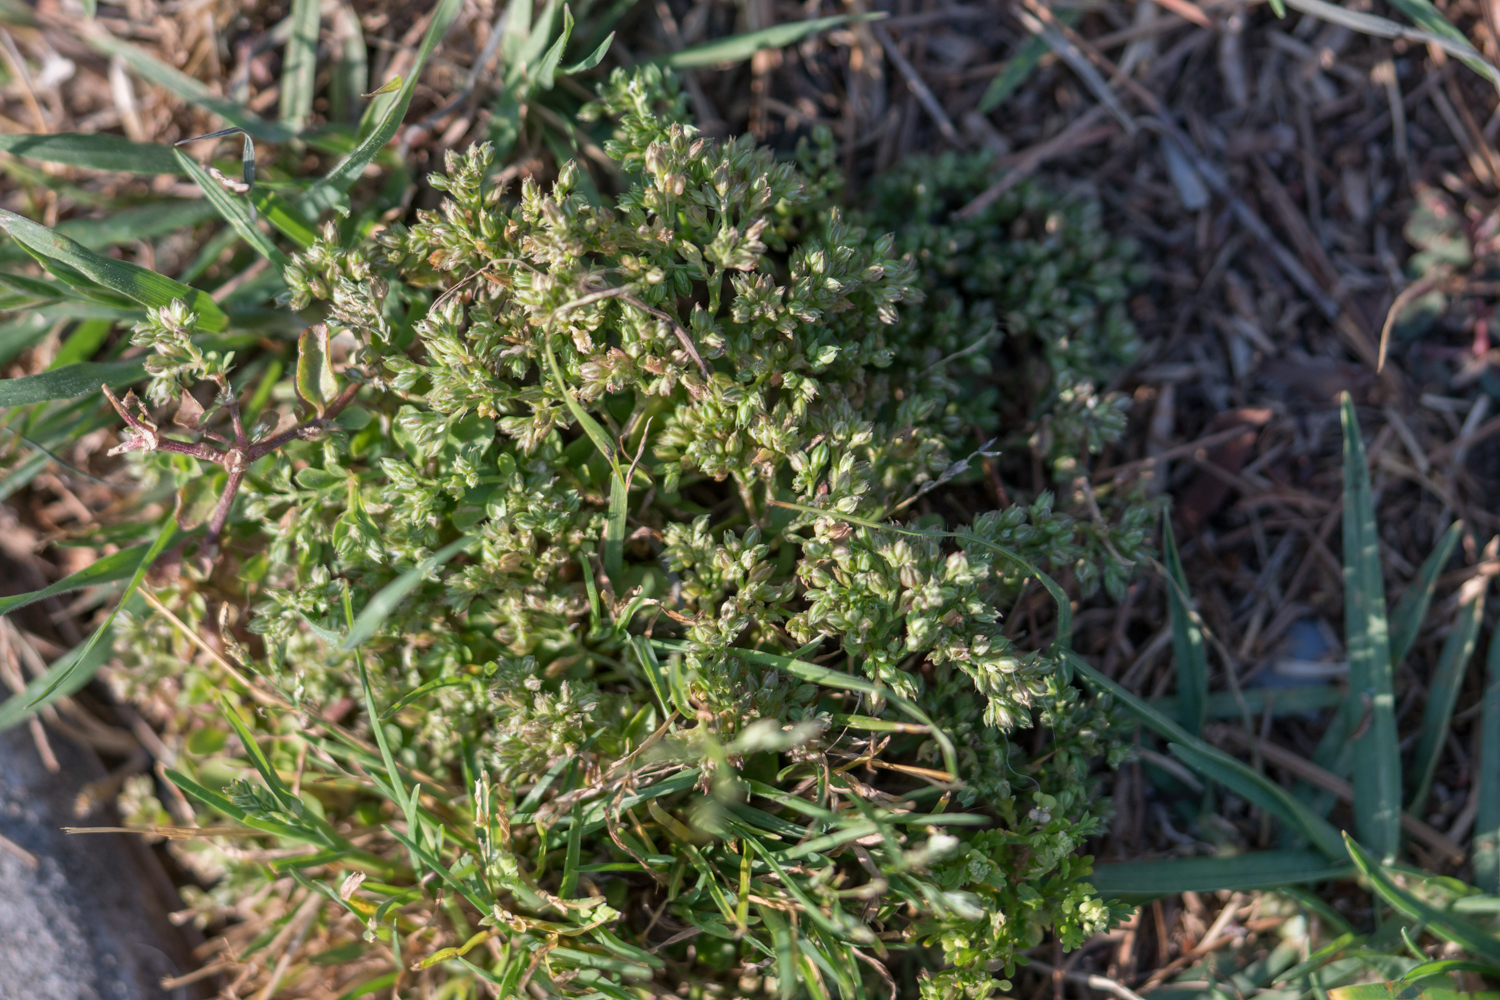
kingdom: Plantae
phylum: Tracheophyta
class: Magnoliopsida
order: Caryophyllales
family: Caryophyllaceae
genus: Polycarpon
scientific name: Polycarpon tetraphyllum
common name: Four-leaved all-seed
